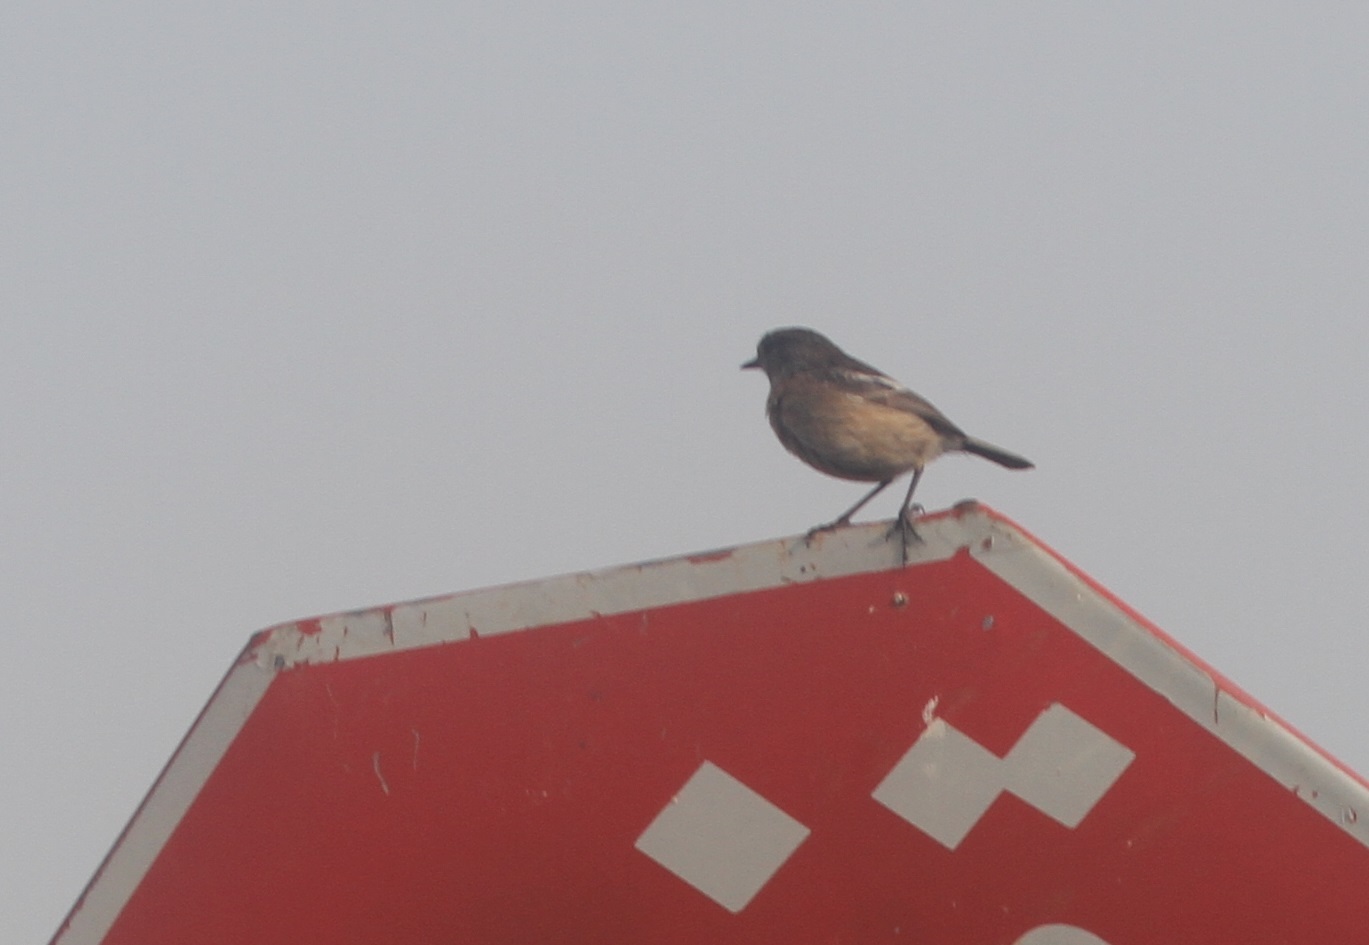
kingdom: Animalia
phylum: Chordata
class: Aves
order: Passeriformes
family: Muscicapidae
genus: Saxicola
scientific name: Saxicola rubicola
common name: European stonechat
